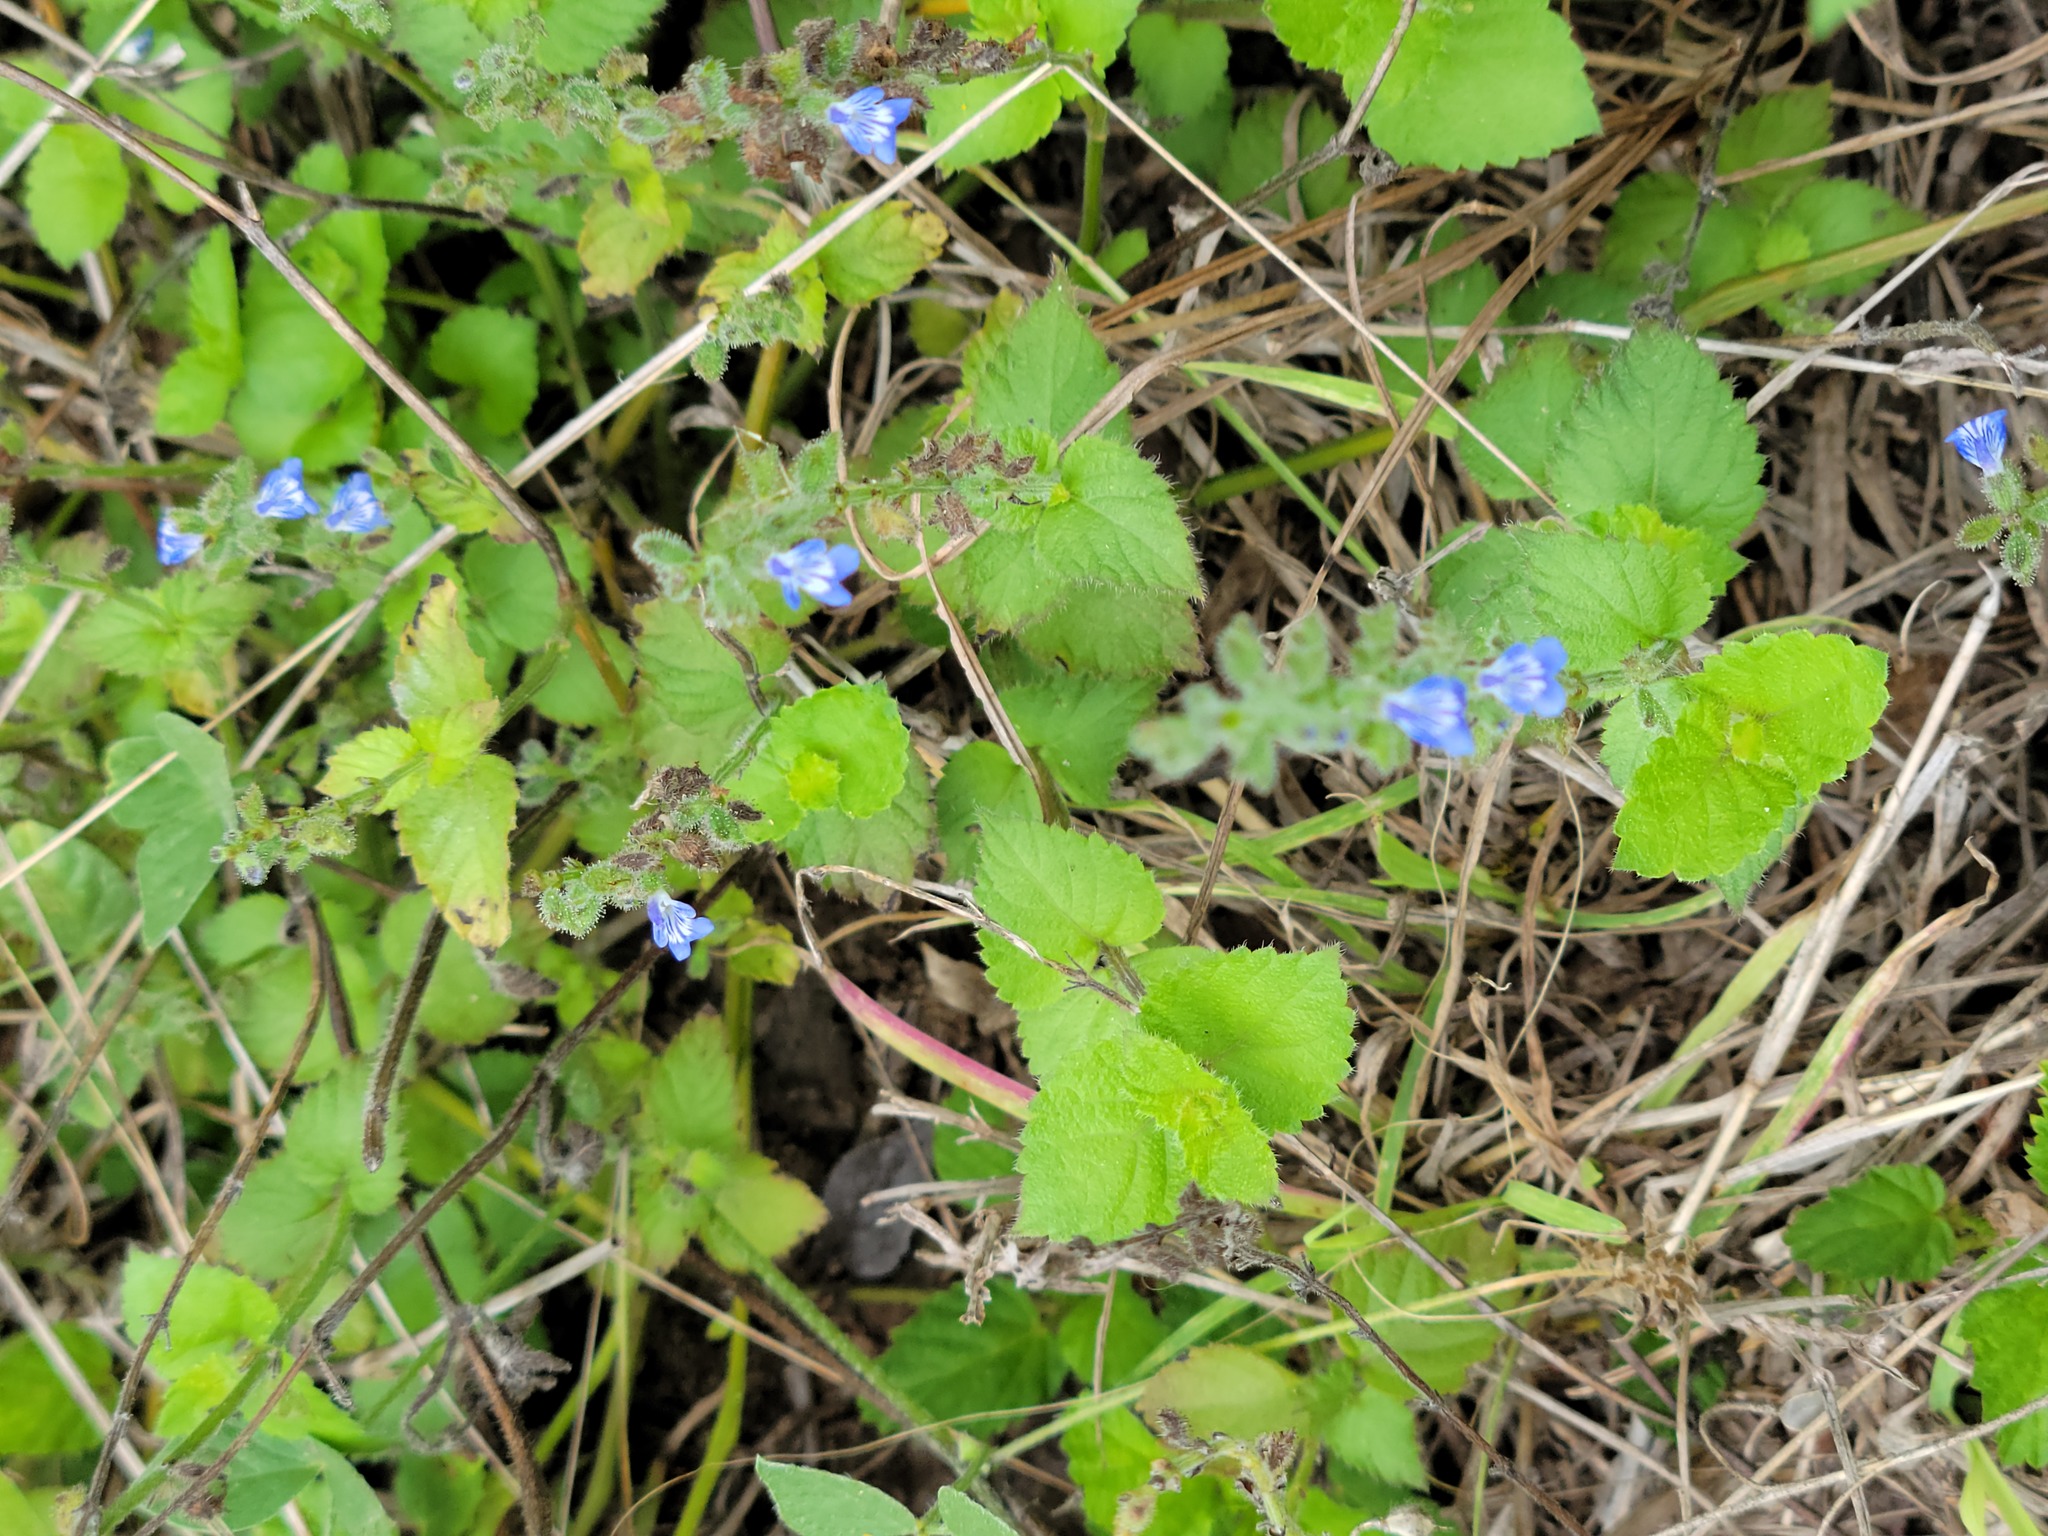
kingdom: Plantae
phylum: Tracheophyta
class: Magnoliopsida
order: Lamiales
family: Lamiaceae
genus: Salvia
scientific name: Salvia misella
